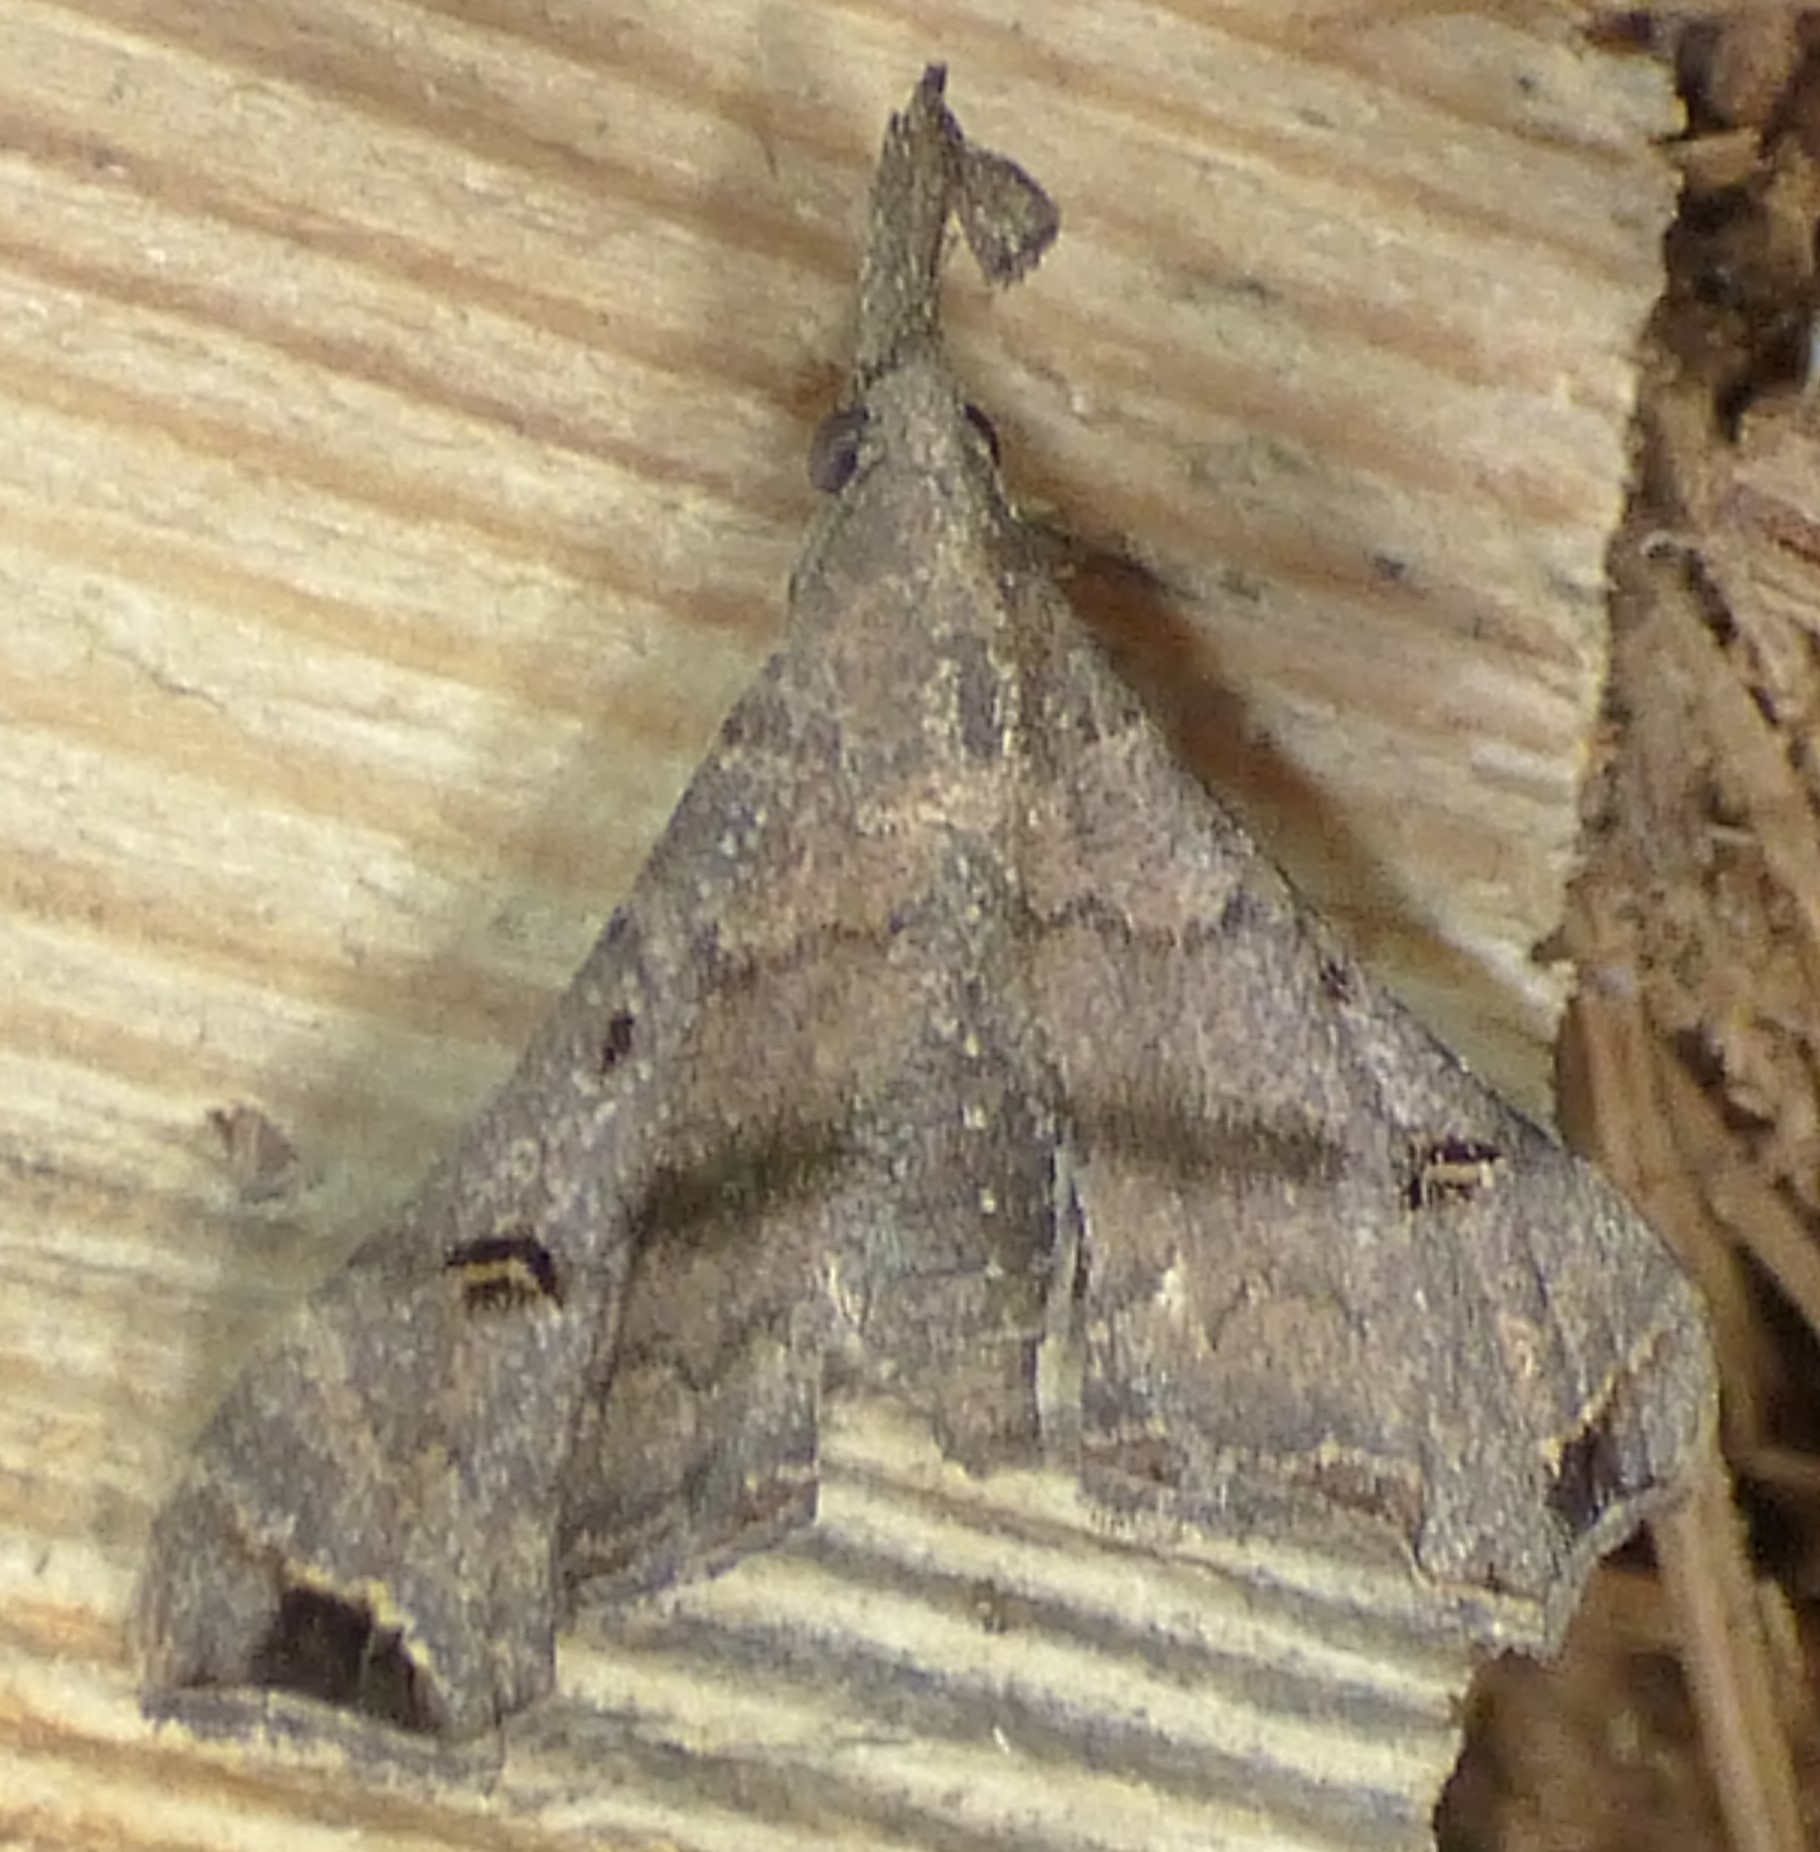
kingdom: Animalia
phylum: Arthropoda
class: Insecta
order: Lepidoptera
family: Erebidae
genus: Palthis
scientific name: Palthis asopialis
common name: Faint-spotted palthis moth
